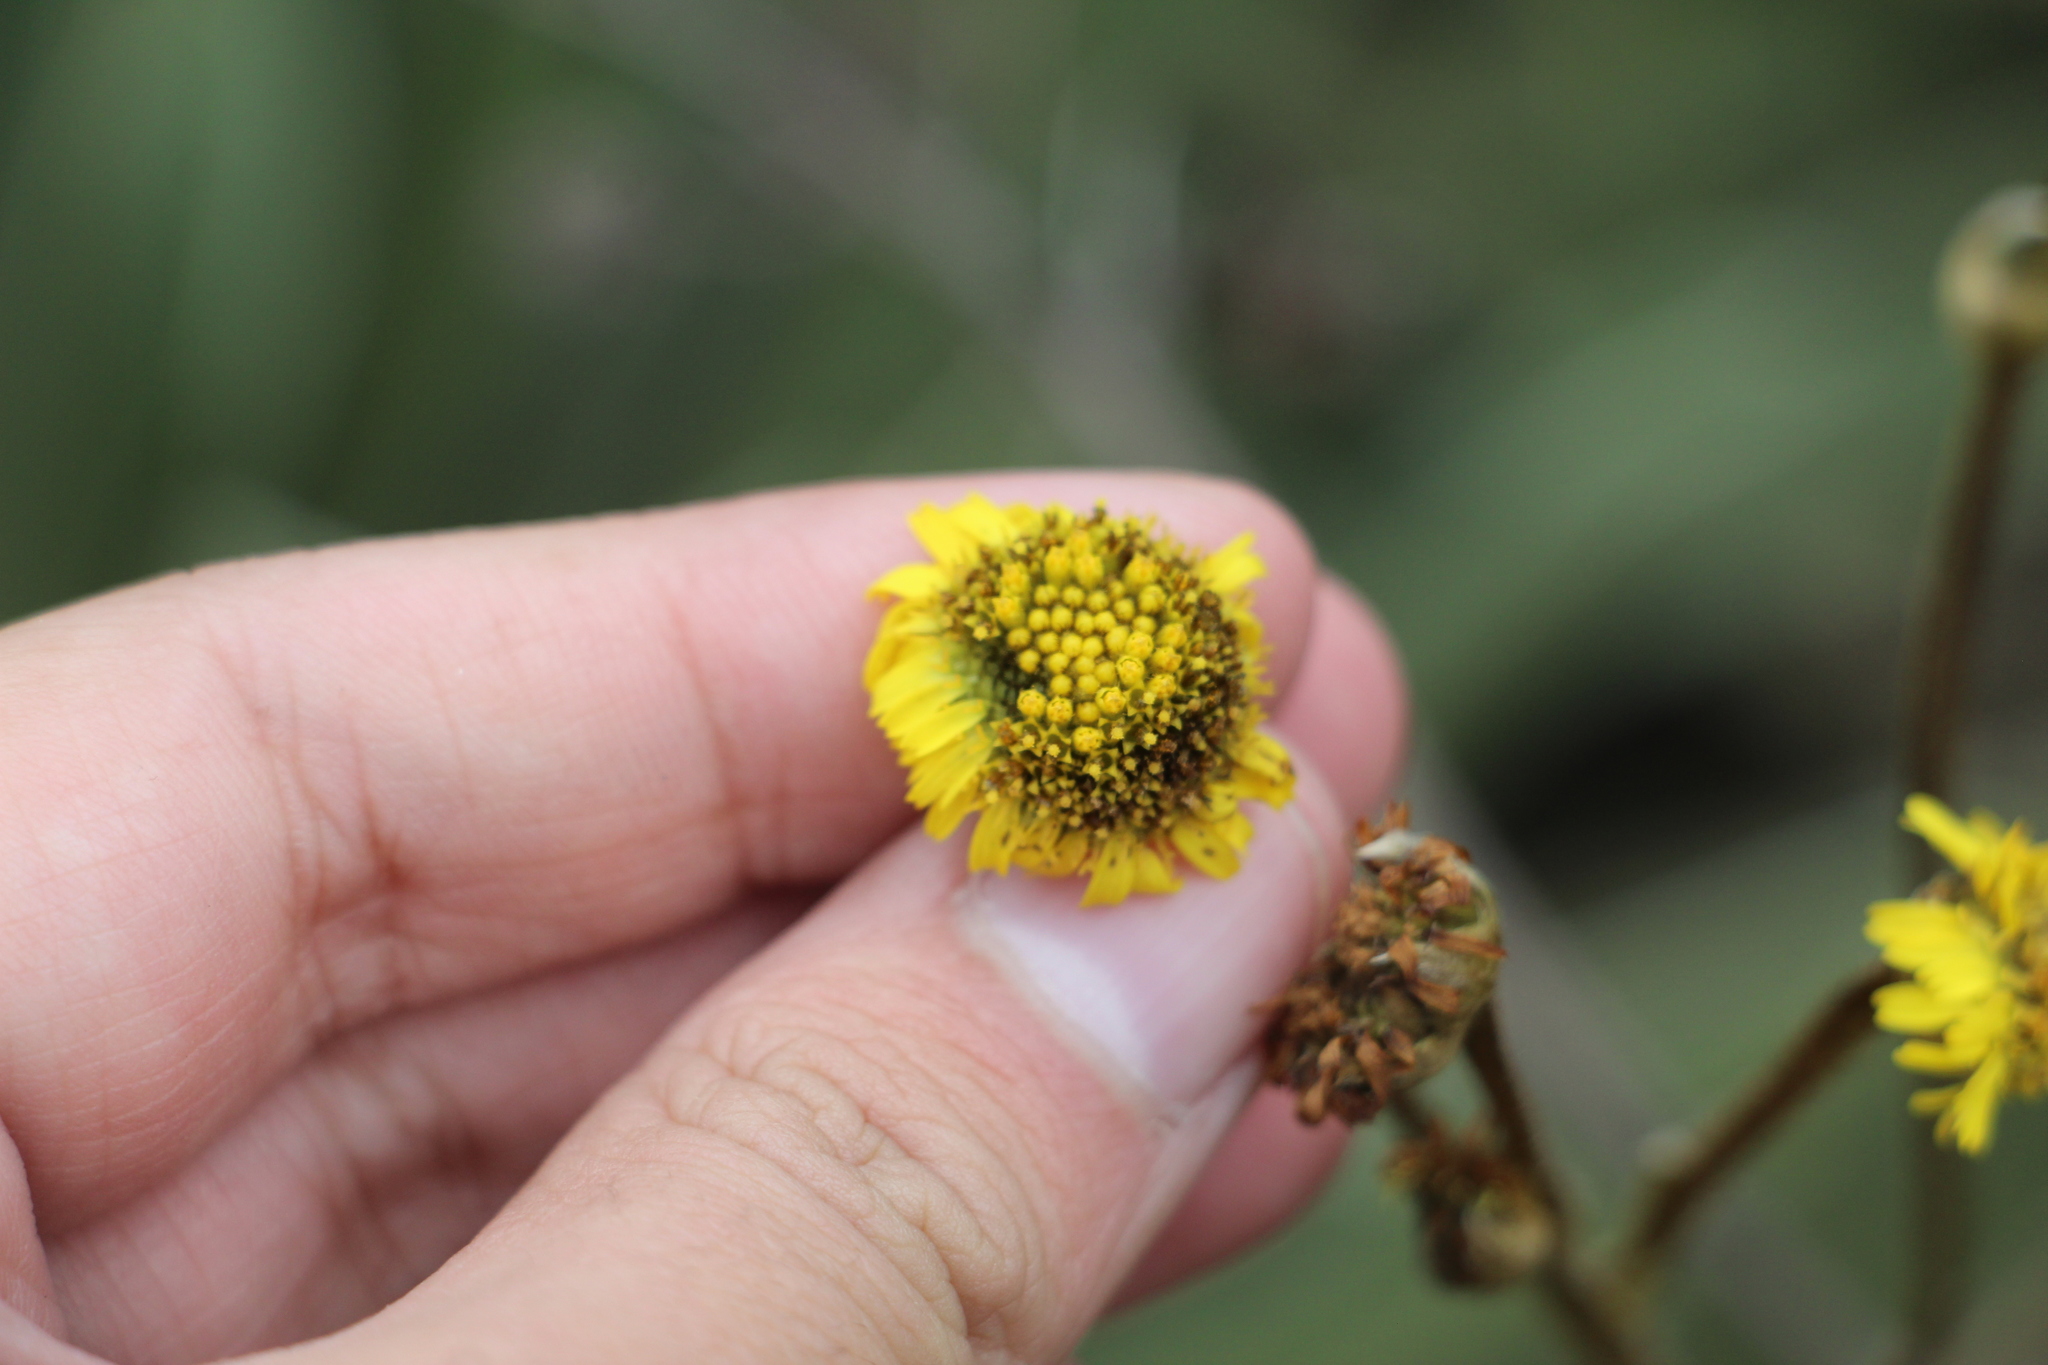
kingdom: Plantae
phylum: Tracheophyta
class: Magnoliopsida
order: Asterales
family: Asteraceae
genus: Espeletia
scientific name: Espeletia boyacensis
